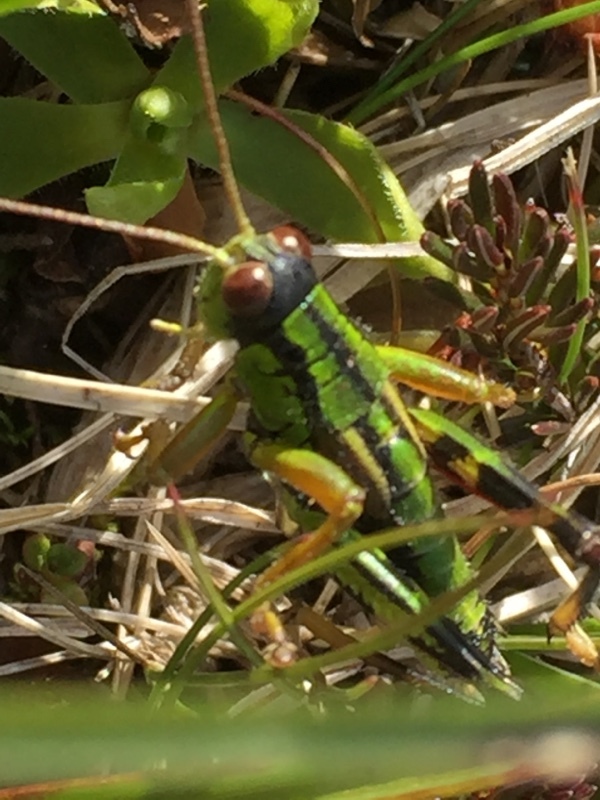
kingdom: Animalia
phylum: Arthropoda
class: Insecta
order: Orthoptera
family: Acrididae
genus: Miramella
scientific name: Miramella alpina
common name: Green mountain grasshopper
